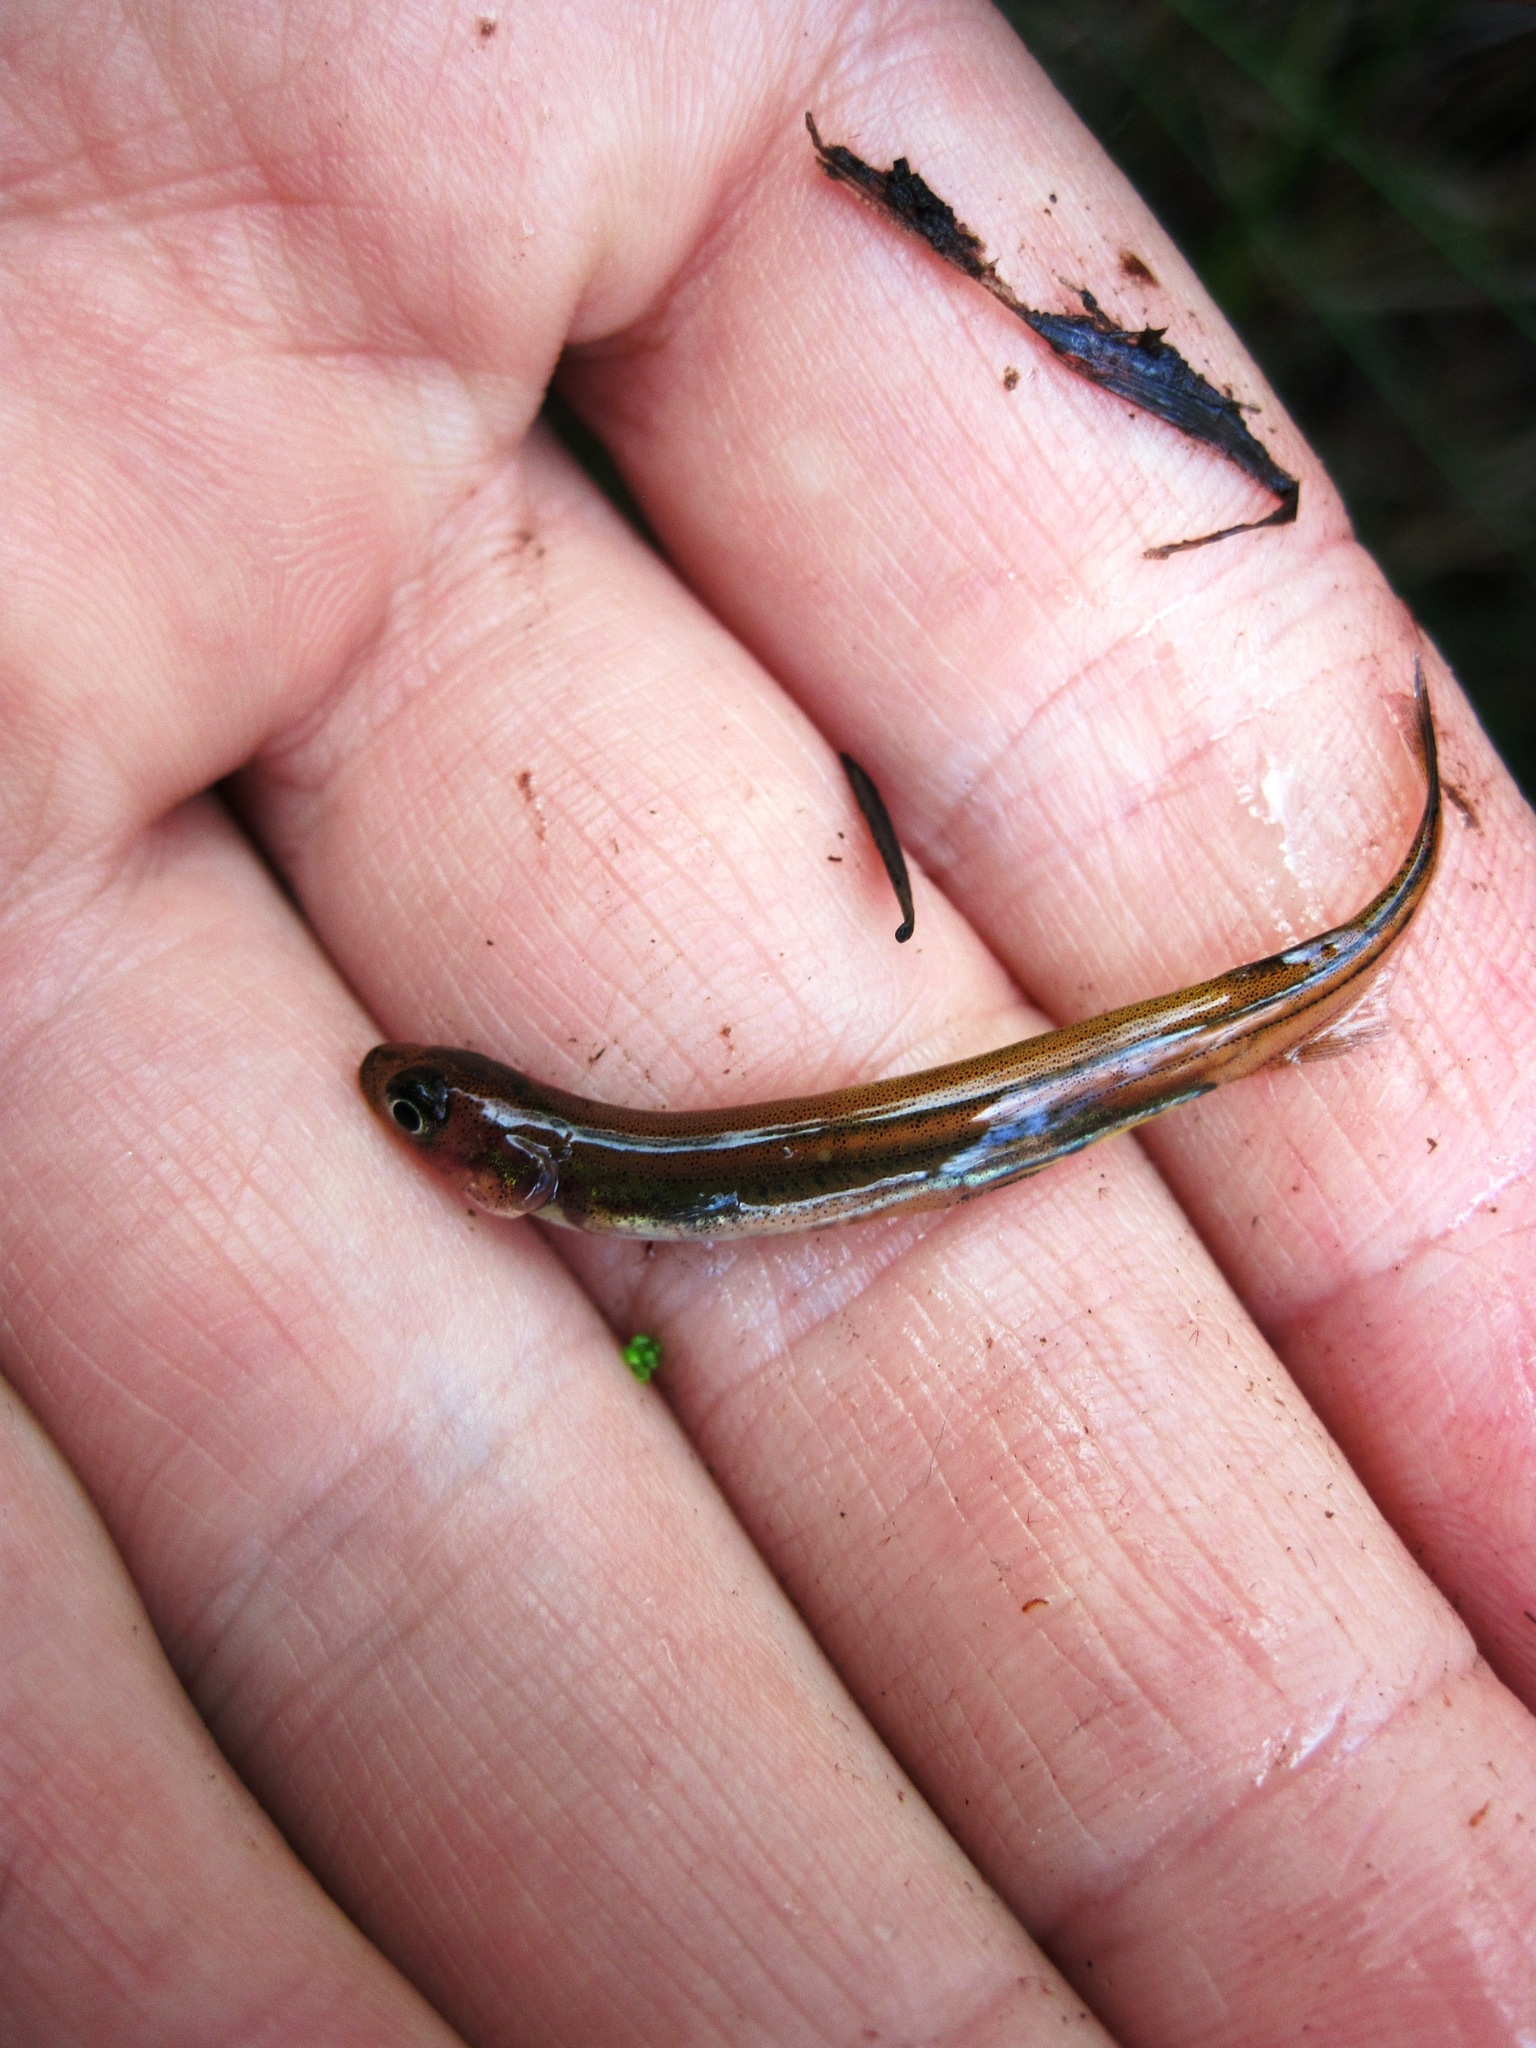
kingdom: Animalia
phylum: Chordata
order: Osmeriformes
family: Galaxiidae
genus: Galaxias
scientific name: Galaxias maculatus
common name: Common galaxias
